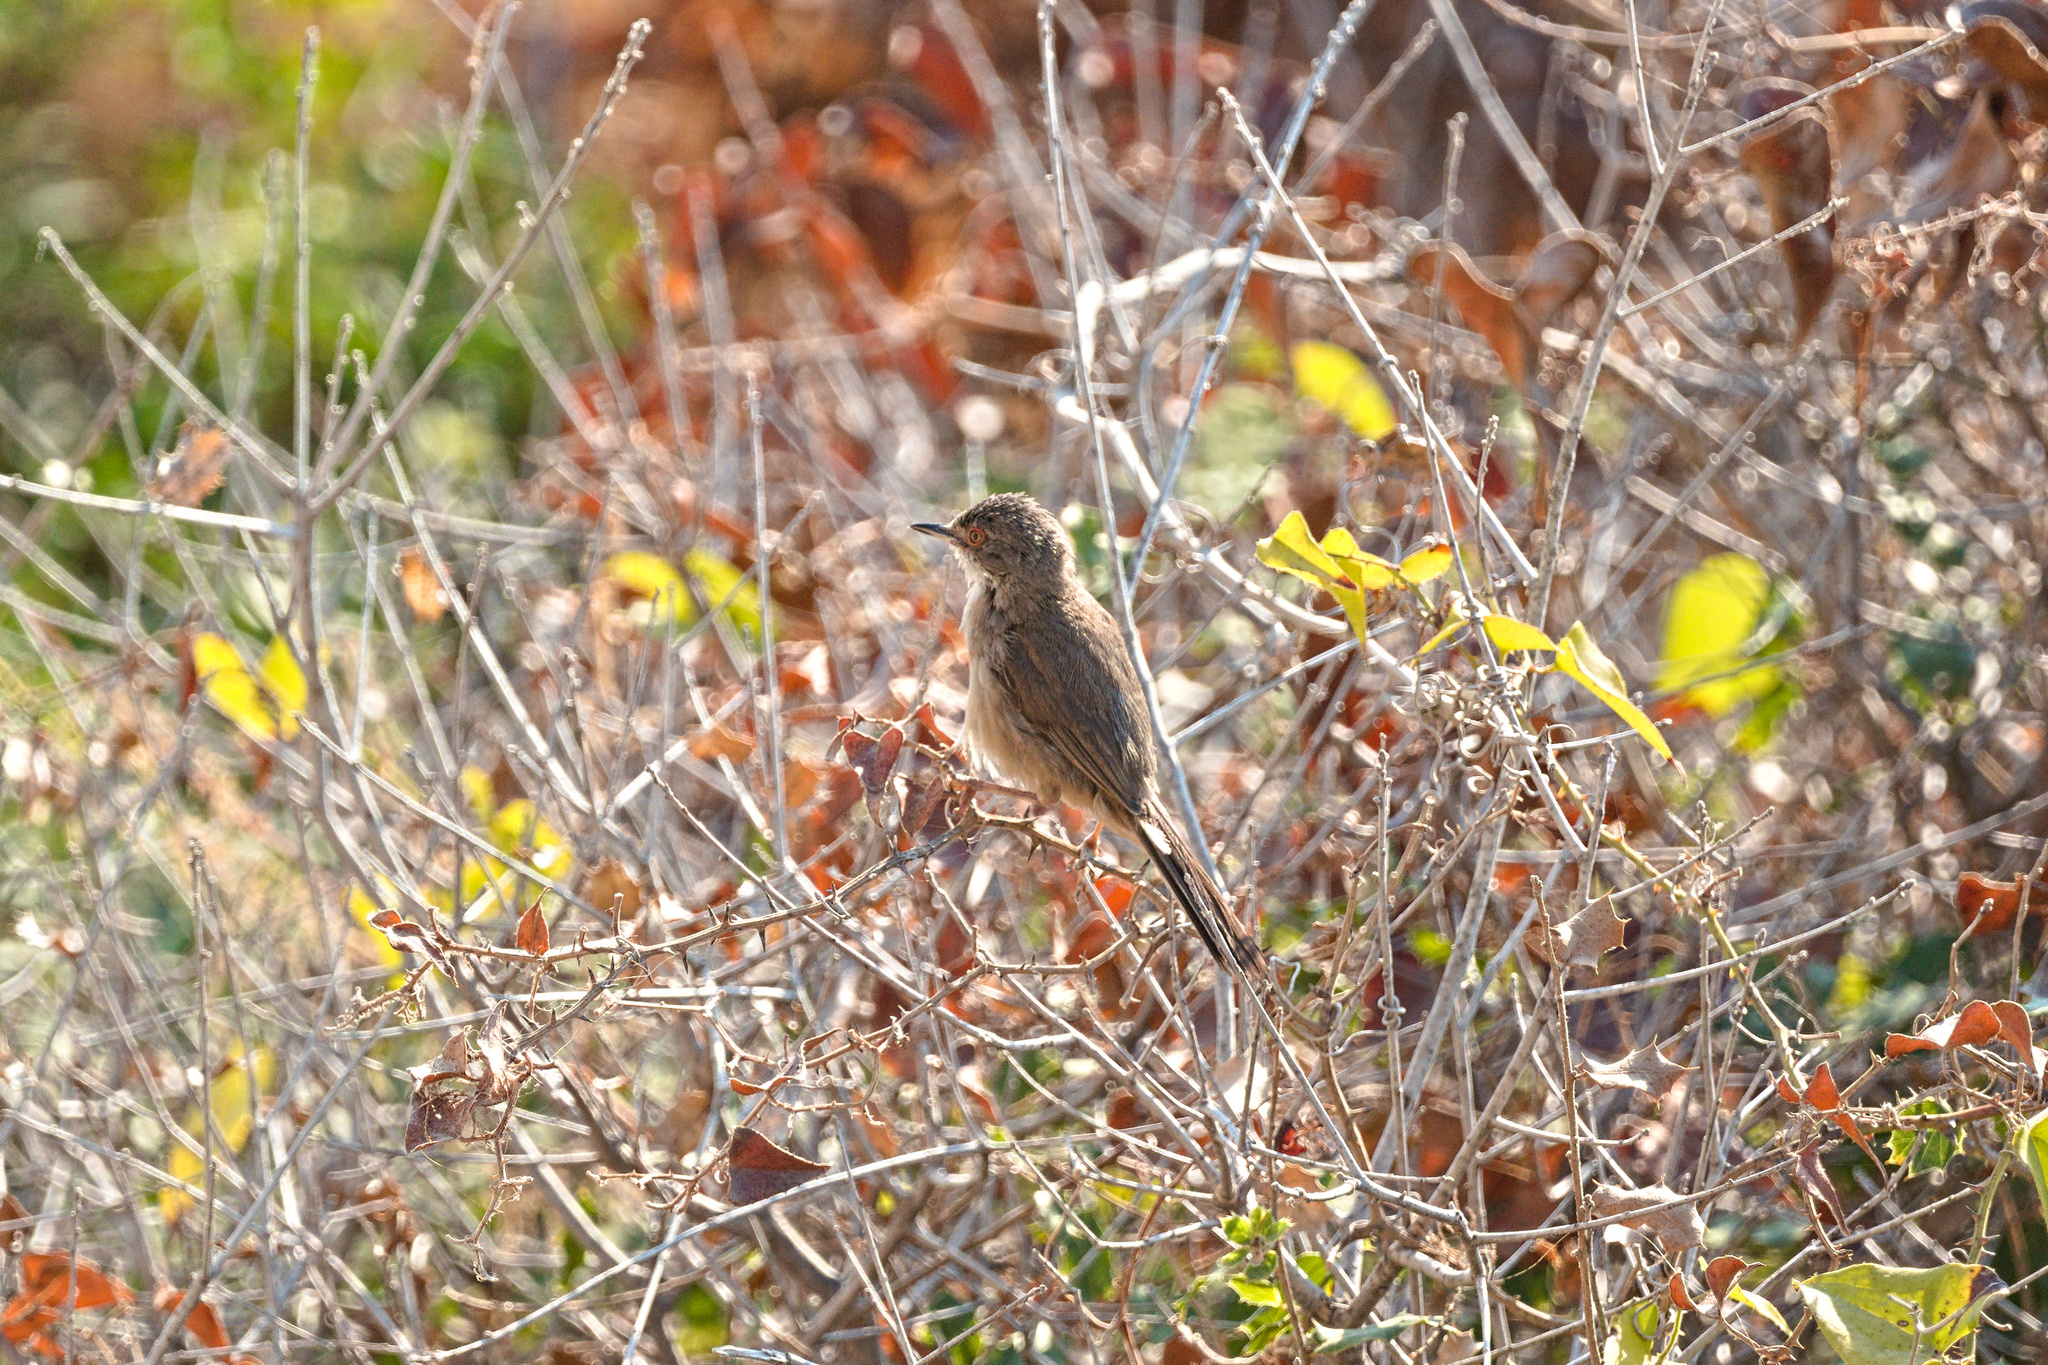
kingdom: Animalia
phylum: Chordata
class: Aves
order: Passeriformes
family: Sylviidae
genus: Curruca
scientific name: Curruca melanocephala
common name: Sardinian warbler
